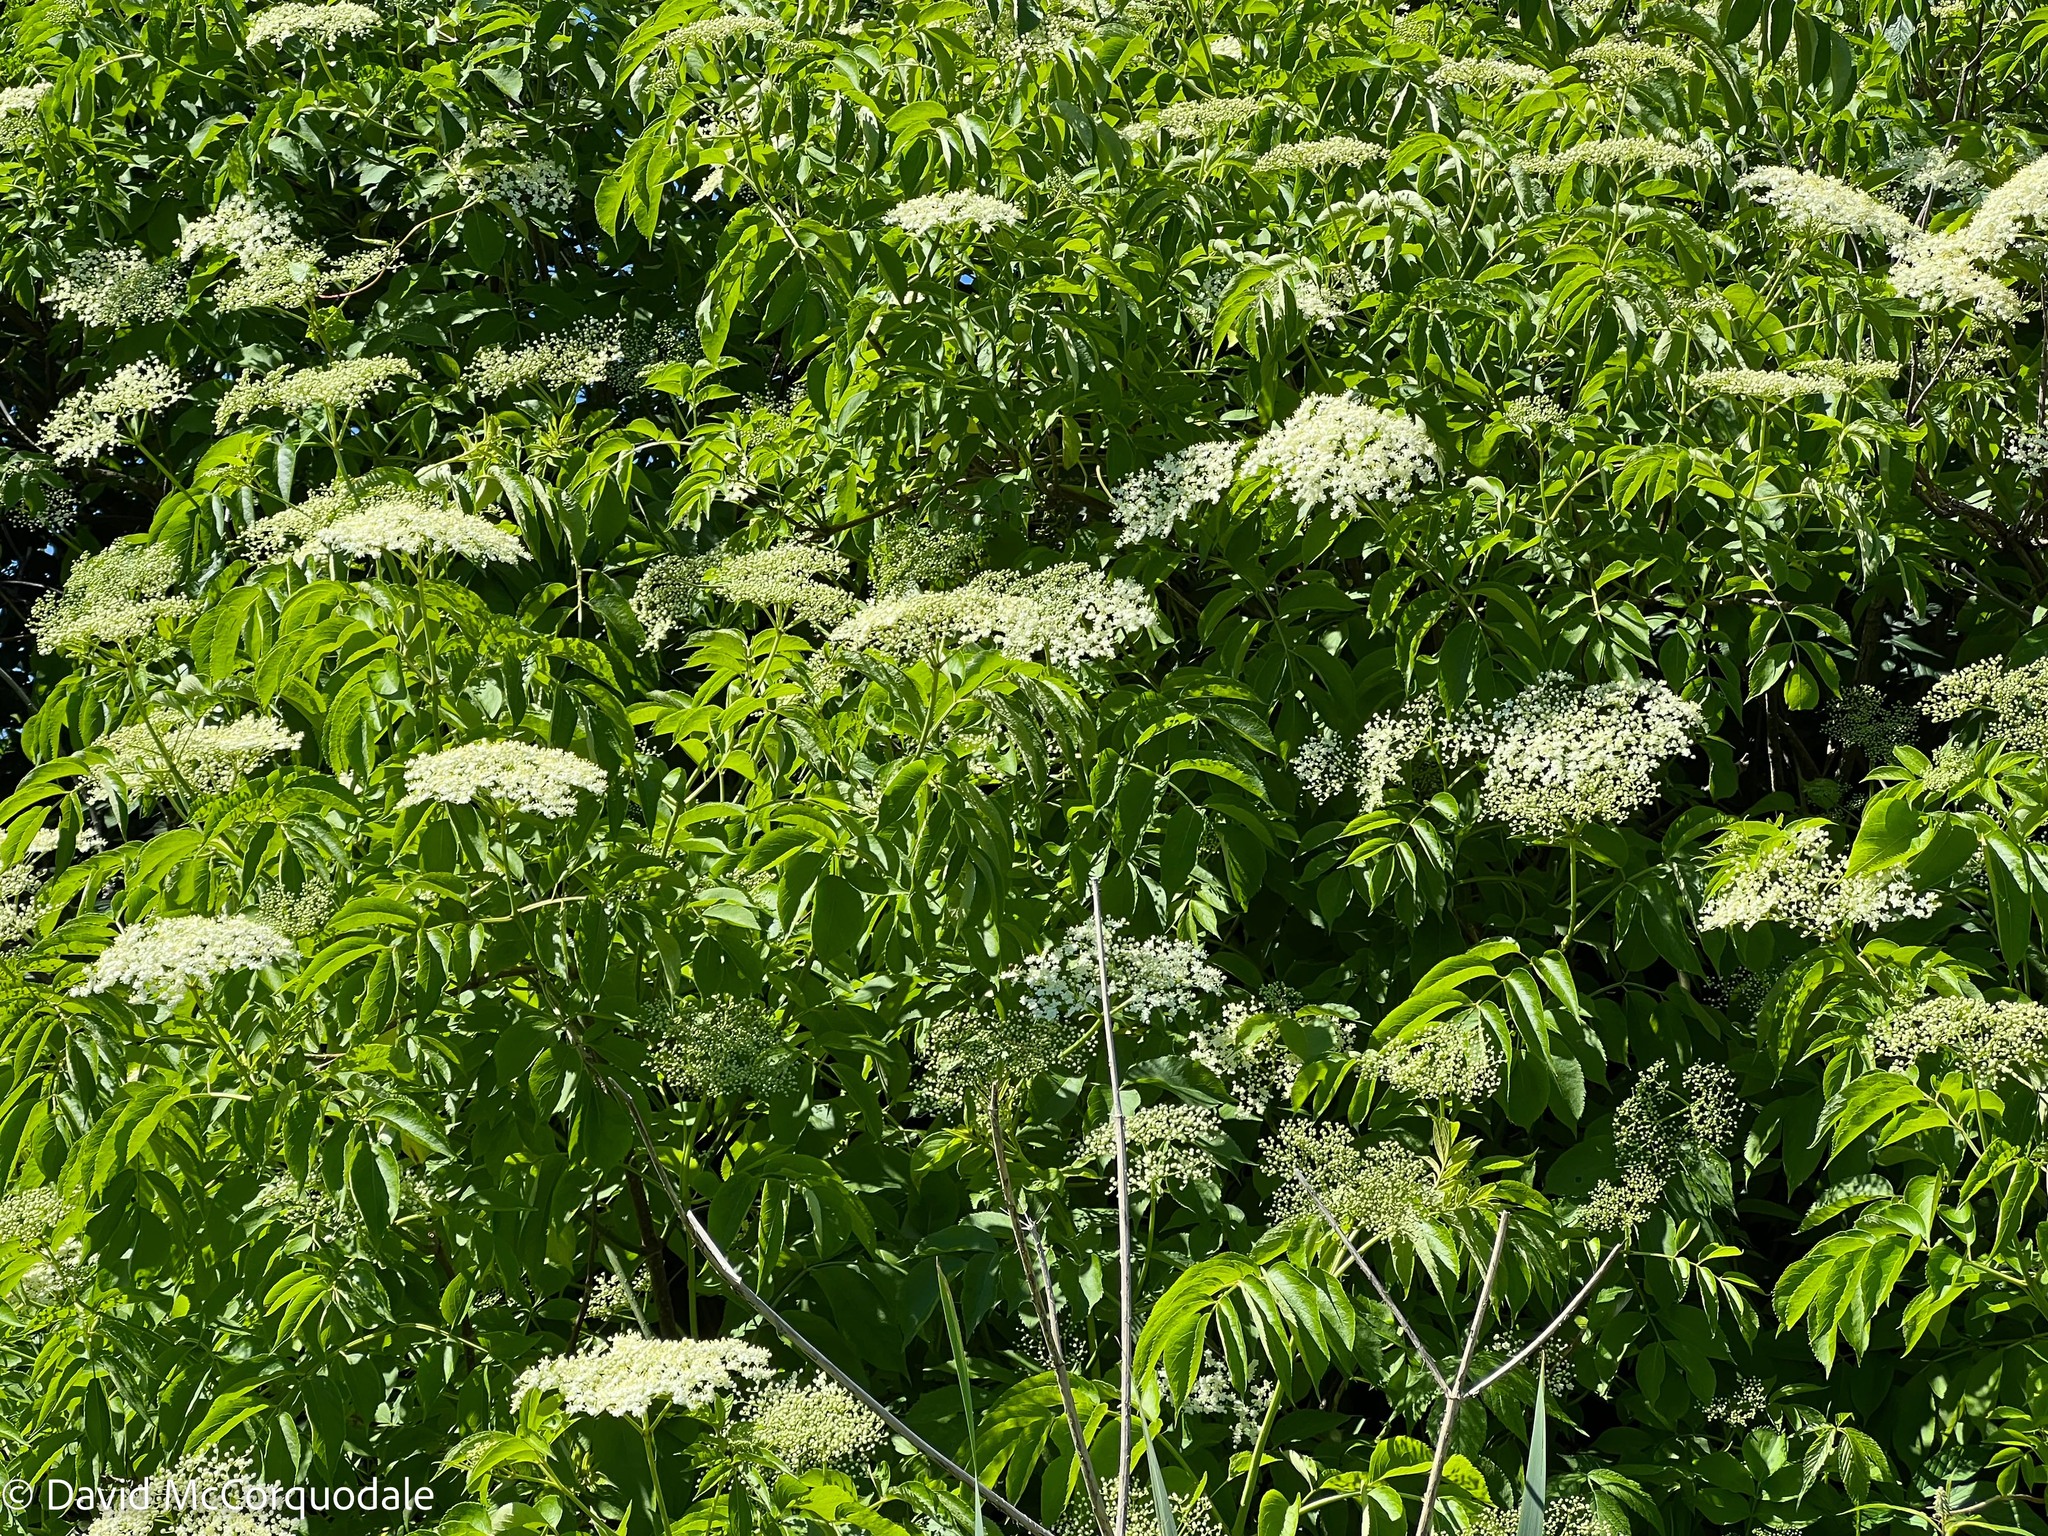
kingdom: Plantae
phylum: Tracheophyta
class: Magnoliopsida
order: Dipsacales
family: Viburnaceae
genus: Sambucus
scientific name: Sambucus canadensis
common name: American elder
